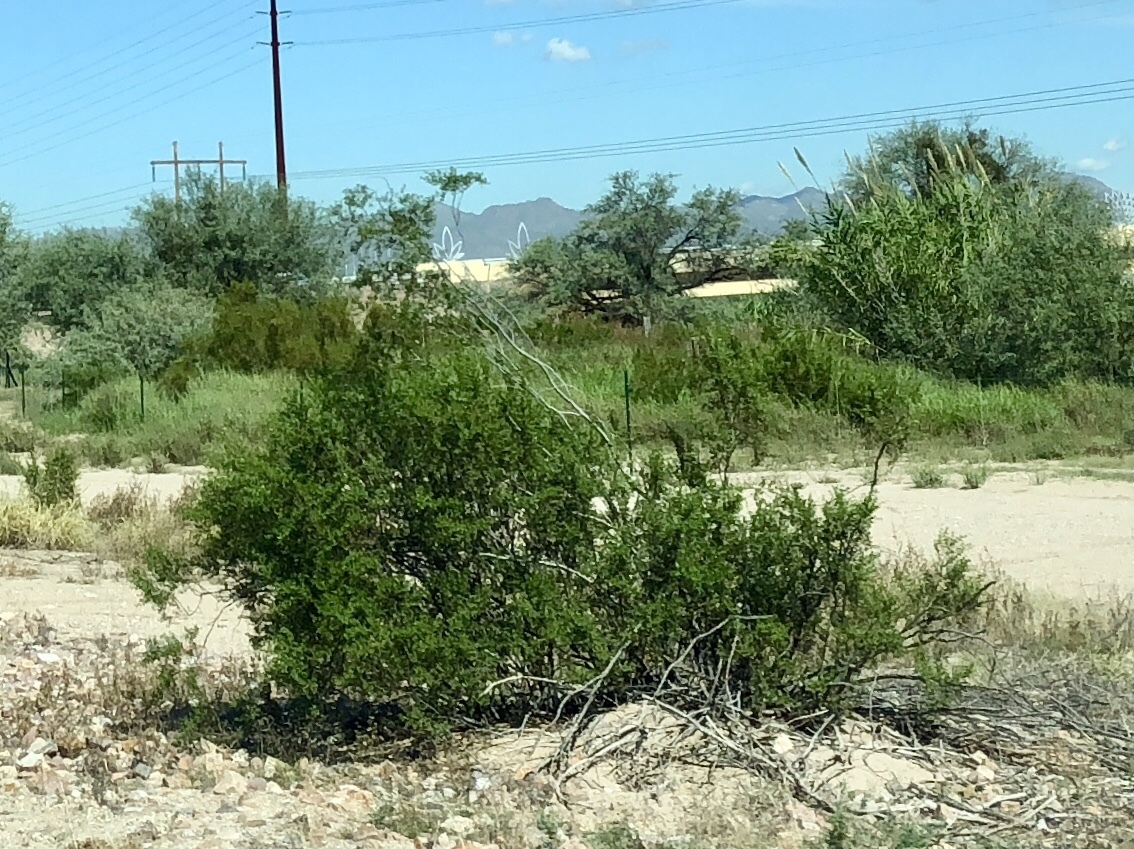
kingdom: Plantae
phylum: Tracheophyta
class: Magnoliopsida
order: Zygophyllales
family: Zygophyllaceae
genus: Larrea
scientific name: Larrea tridentata
